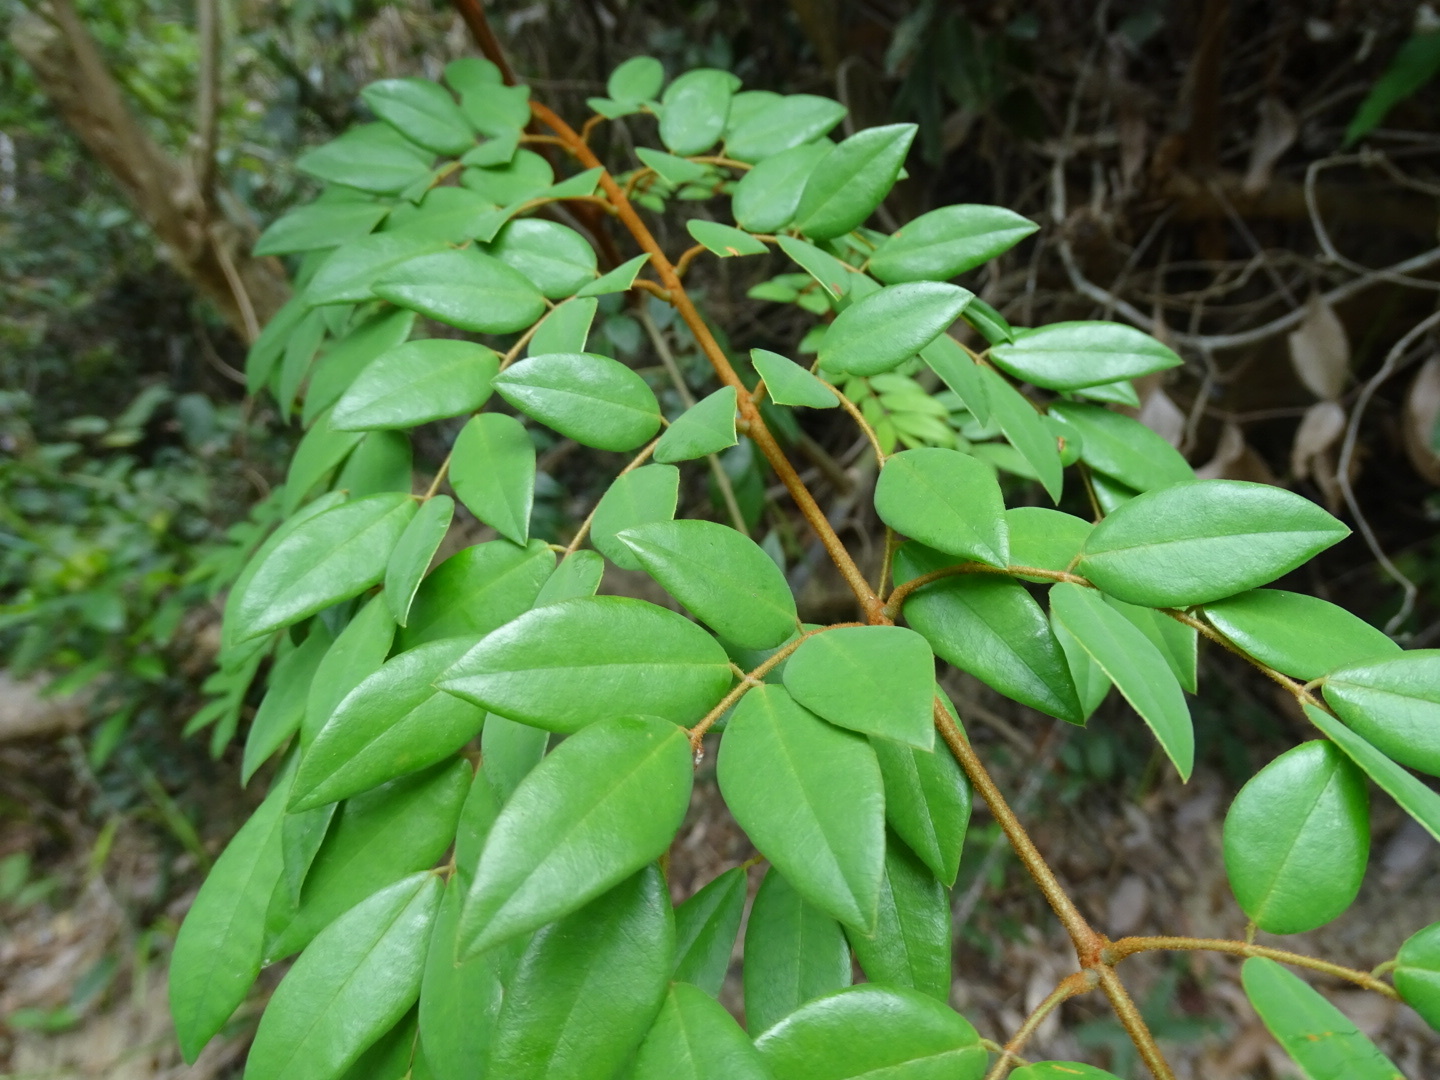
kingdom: Plantae
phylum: Tracheophyta
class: Magnoliopsida
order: Fabales
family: Fabaceae
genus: Caesalpinia
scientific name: Caesalpinia Ticanto vernalis
